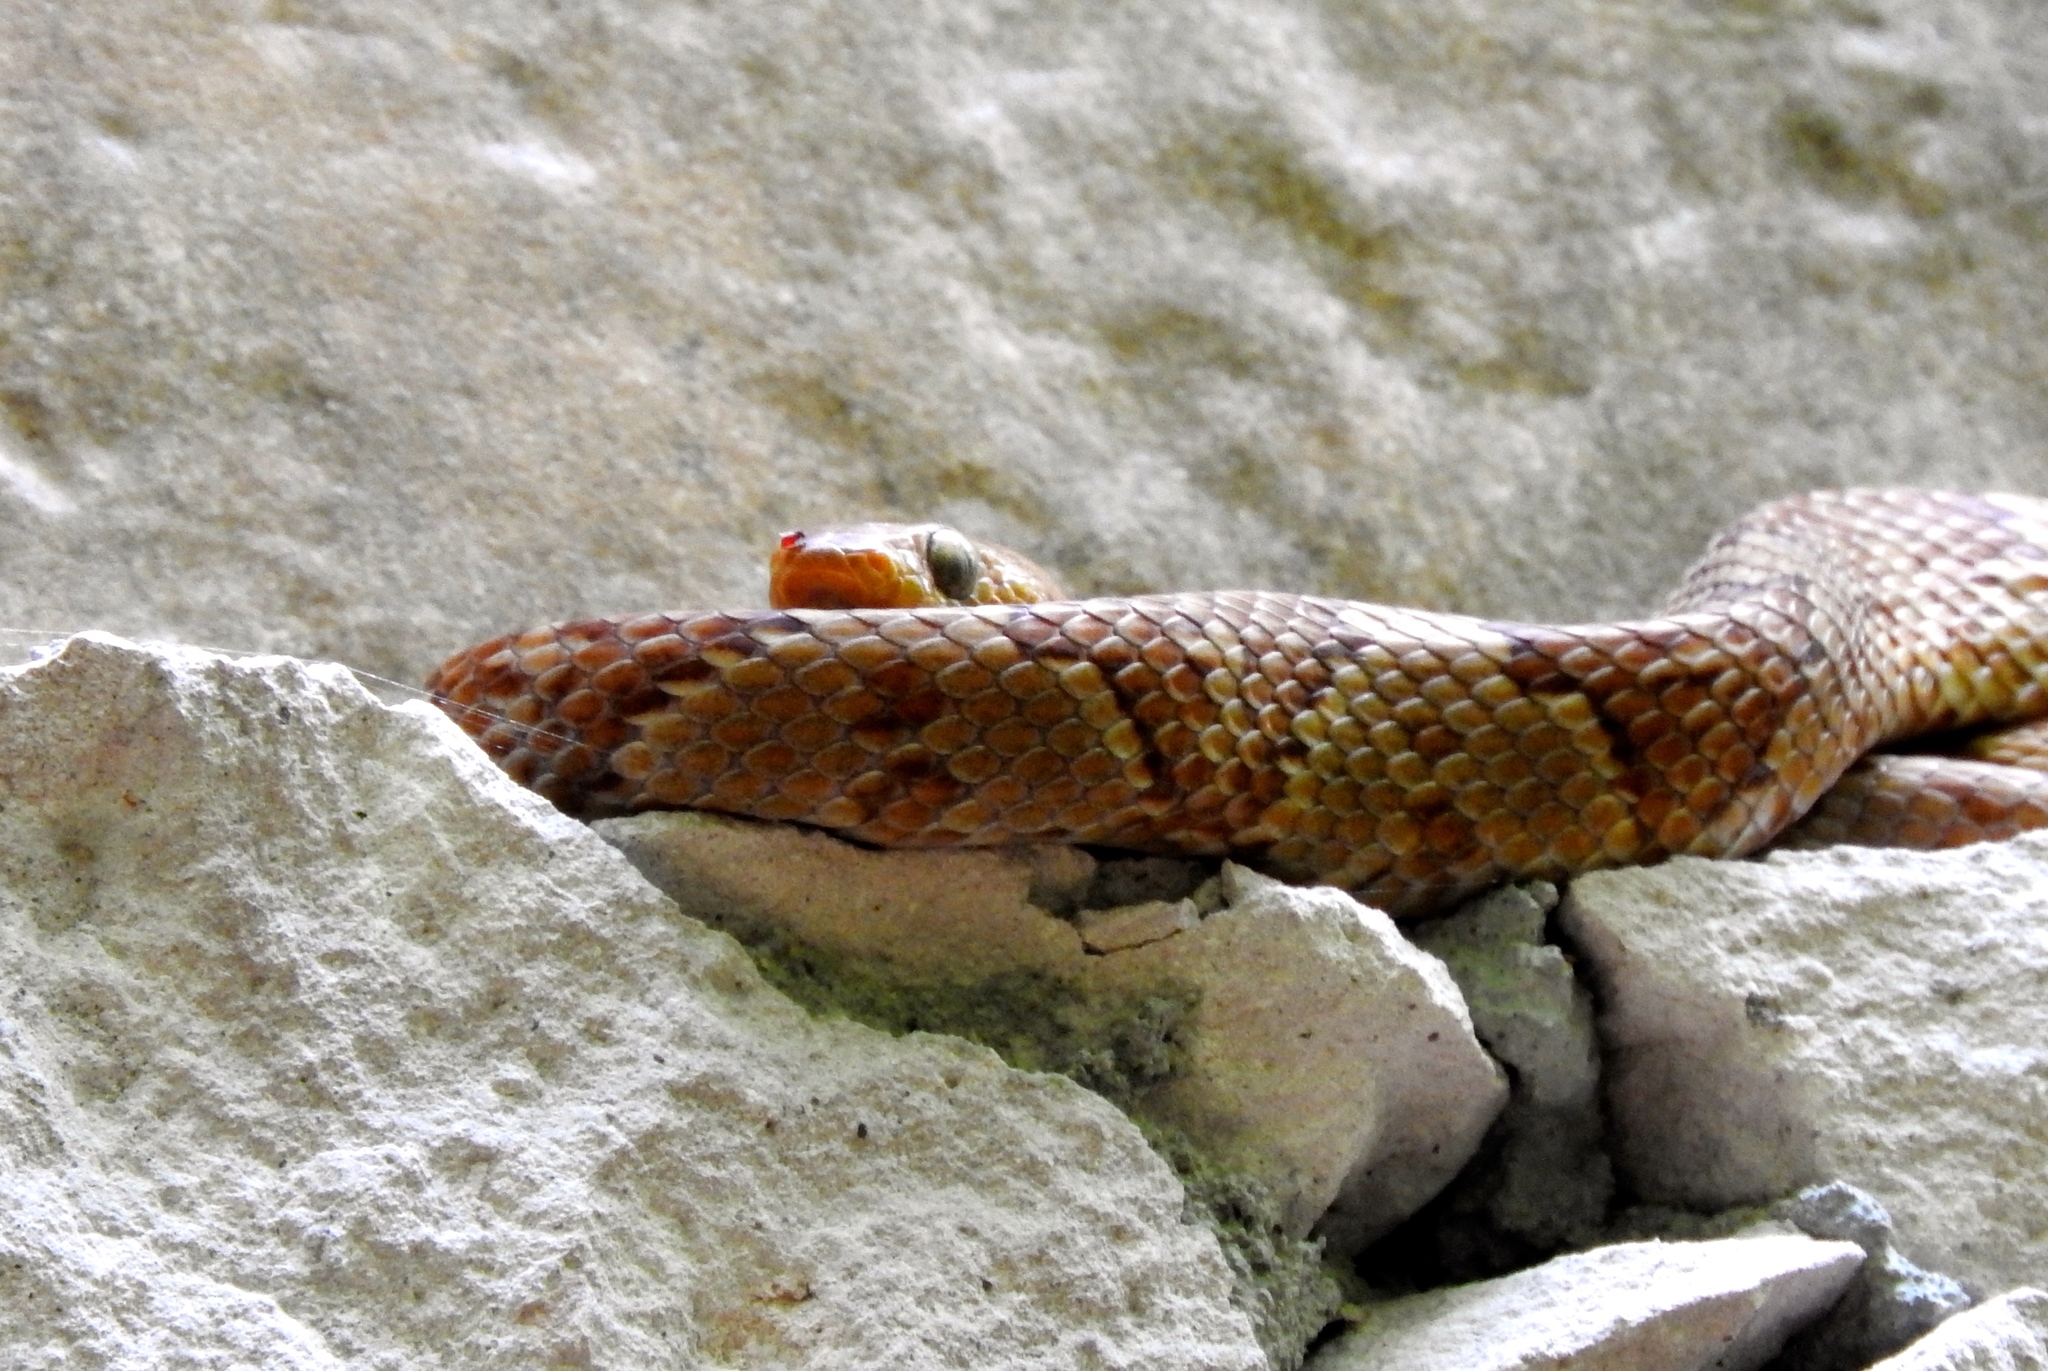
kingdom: Animalia
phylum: Chordata
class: Squamata
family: Colubridae
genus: Trimorphodon
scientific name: Trimorphodon paucimaculatus
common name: Sinaloan lyresnake
